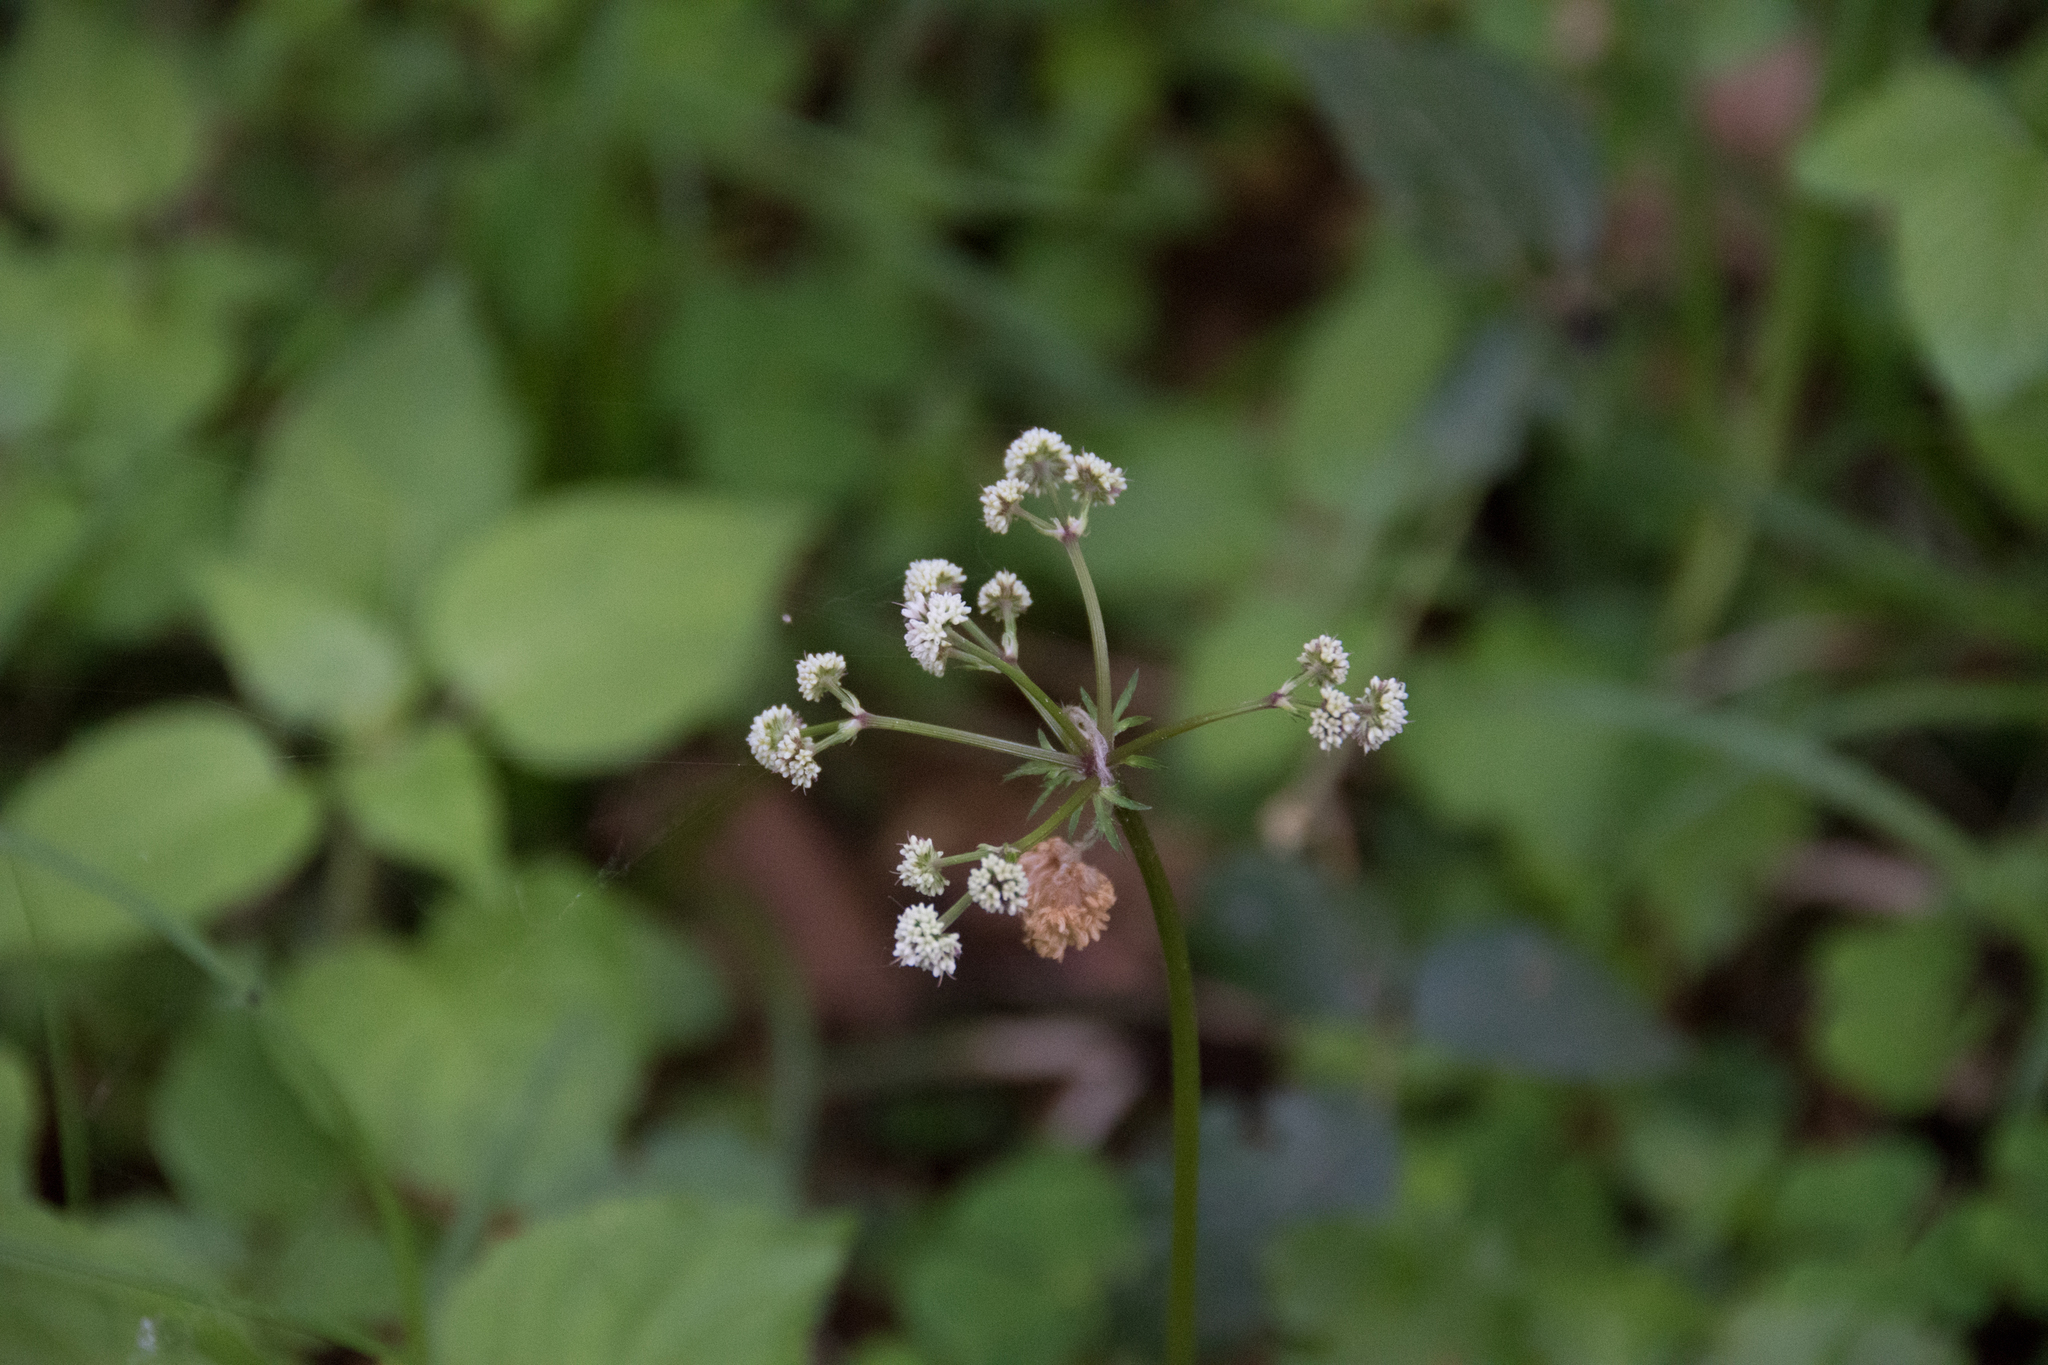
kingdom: Plantae
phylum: Tracheophyta
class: Magnoliopsida
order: Apiales
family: Apiaceae
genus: Sanicula
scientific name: Sanicula europaea
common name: Sanicle
